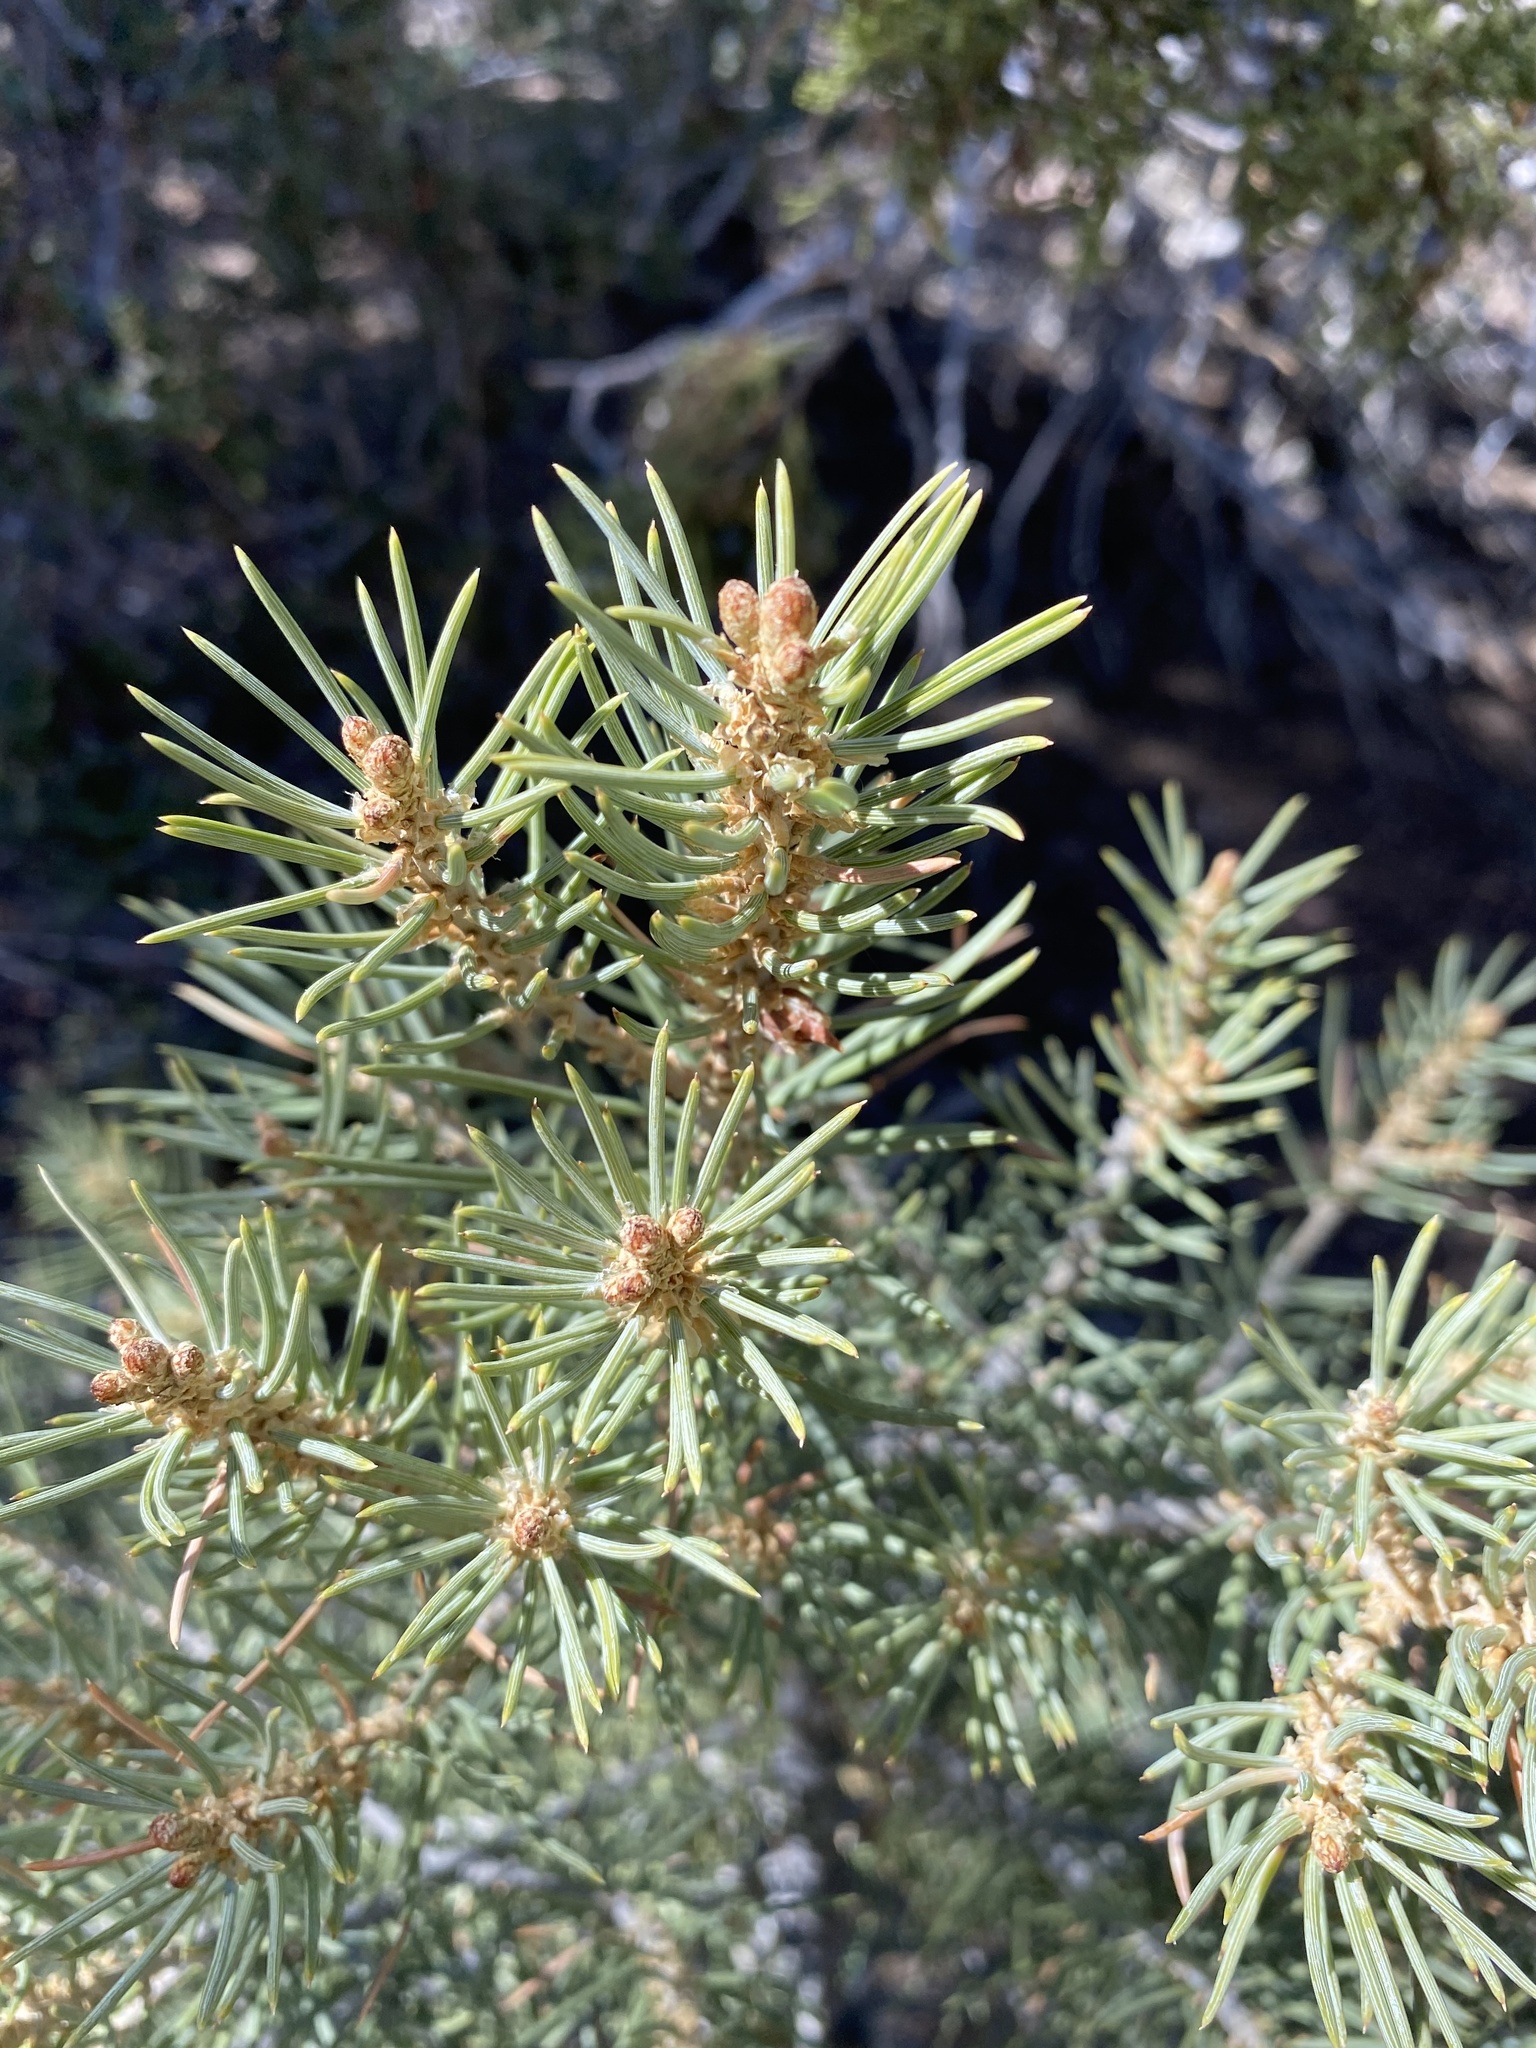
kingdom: Plantae
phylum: Tracheophyta
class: Pinopsida
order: Pinales
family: Pinaceae
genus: Pinus
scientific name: Pinus monophylla
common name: One-leaved nut pine
